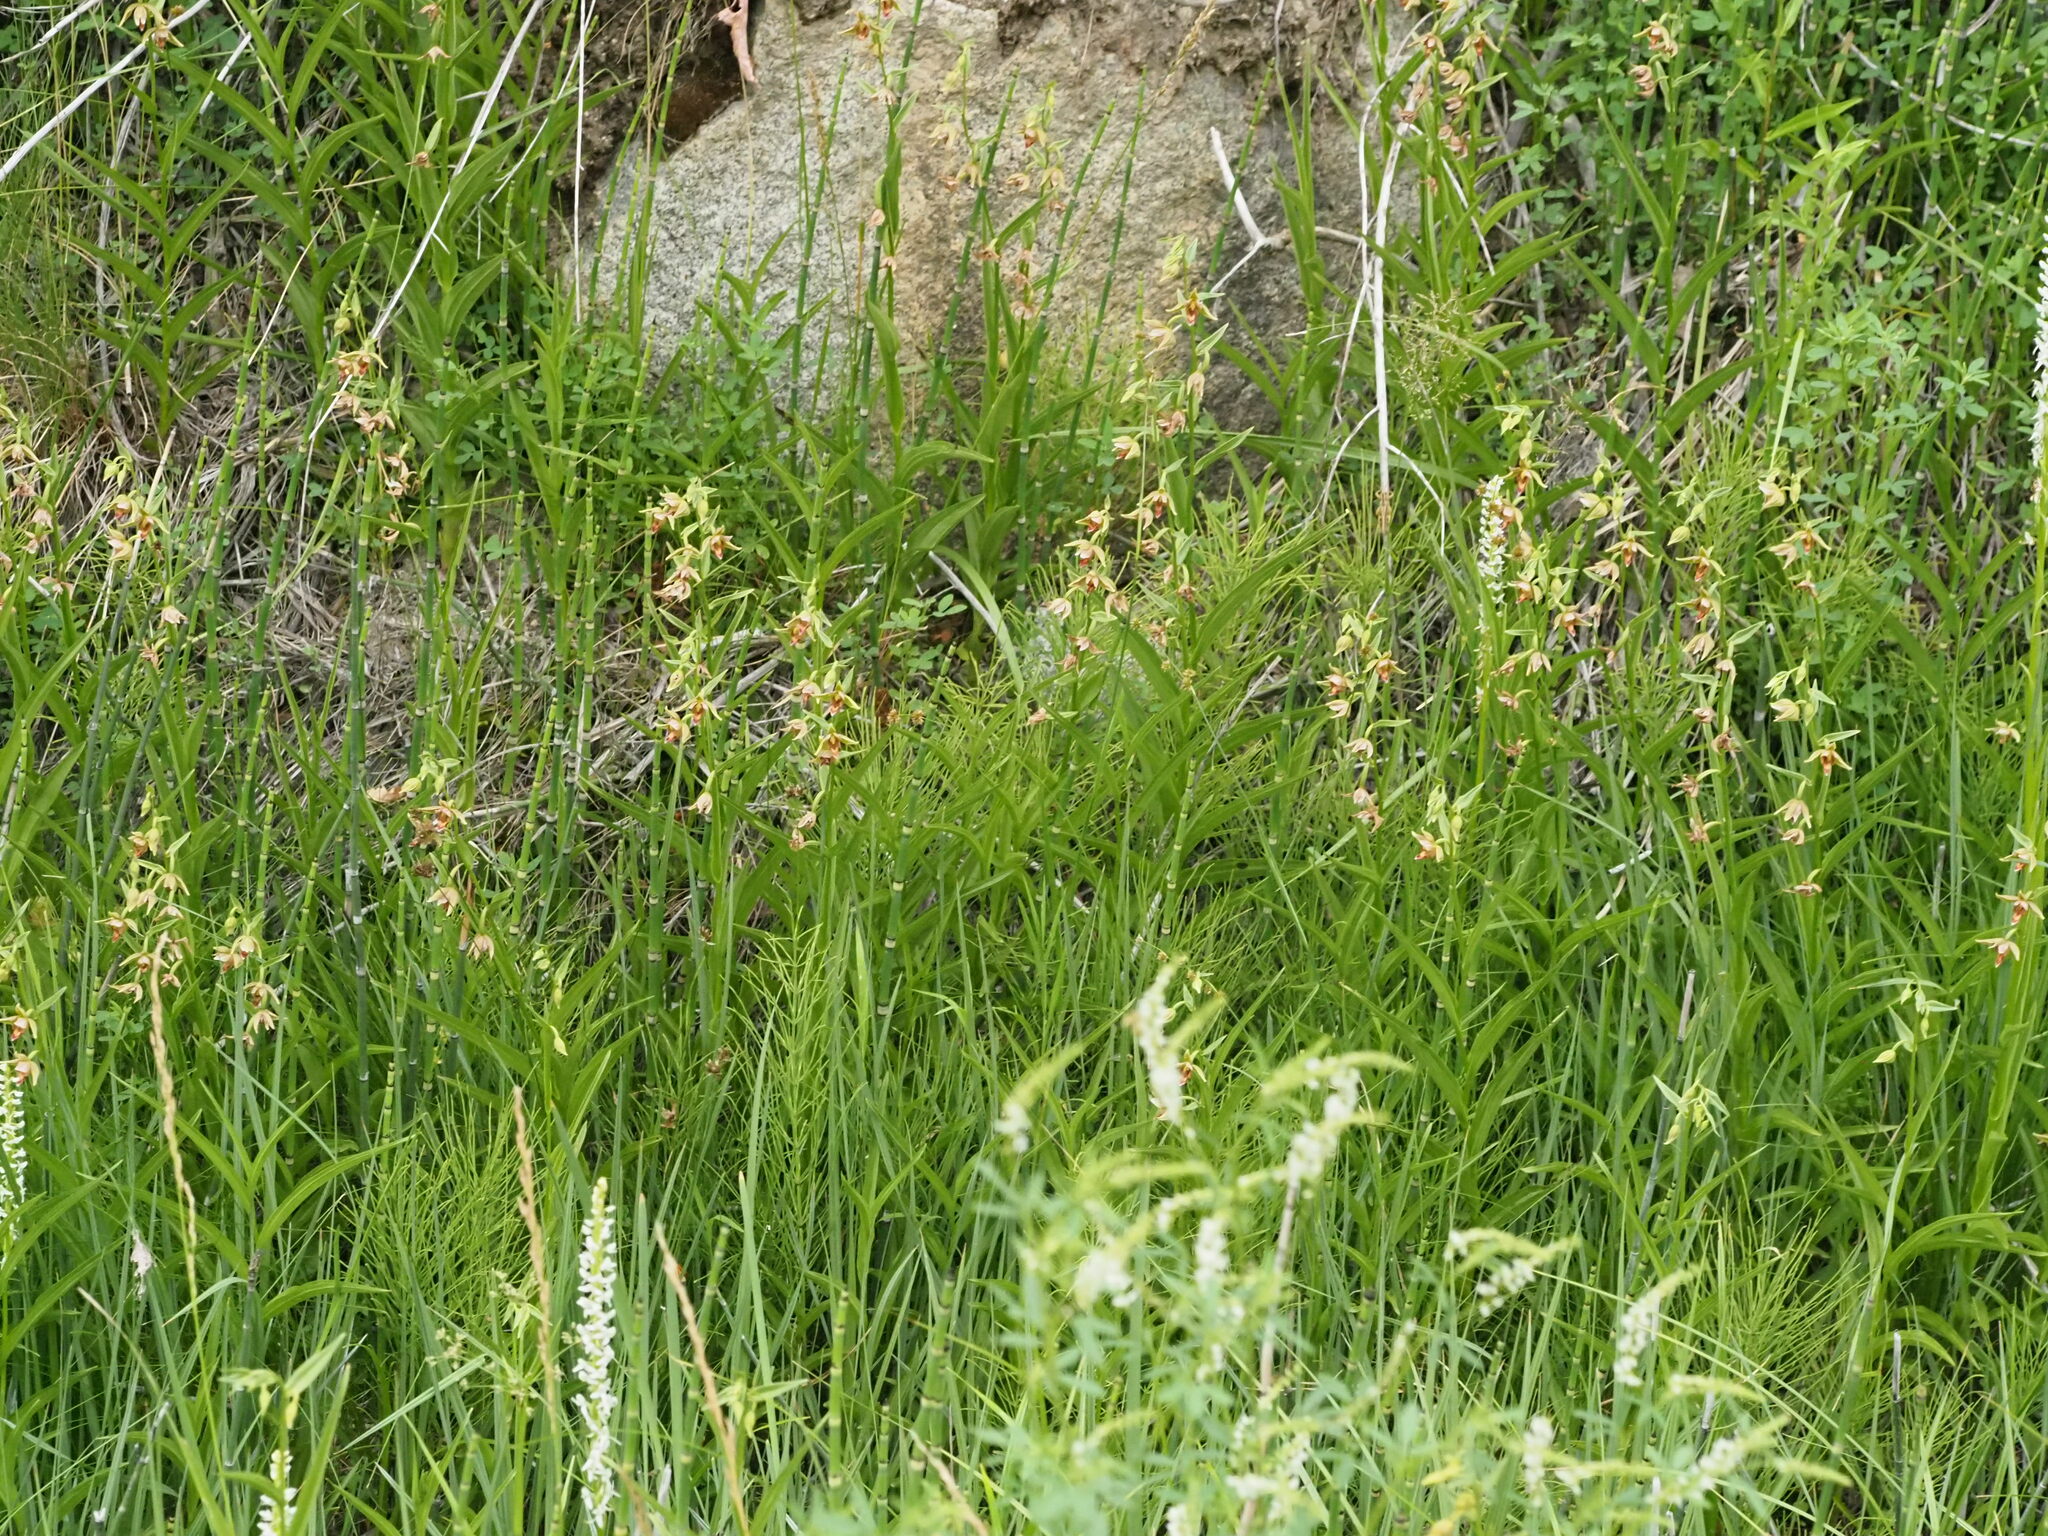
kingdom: Plantae
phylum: Tracheophyta
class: Liliopsida
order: Asparagales
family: Orchidaceae
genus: Epipactis
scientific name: Epipactis gigantea
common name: Chatterbox
